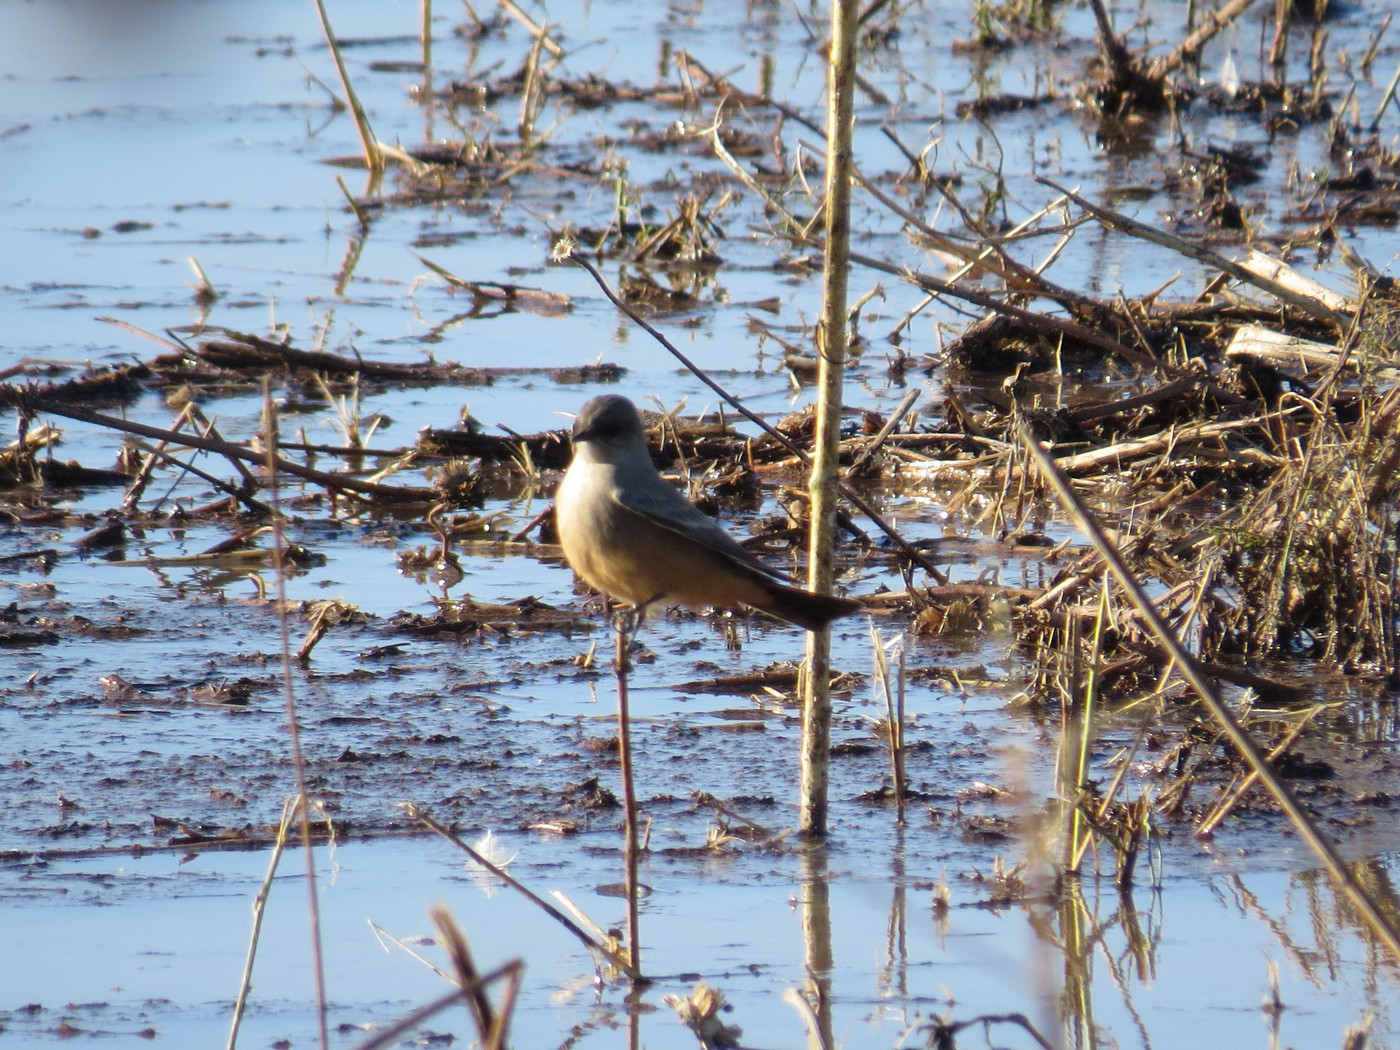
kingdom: Animalia
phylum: Chordata
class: Aves
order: Passeriformes
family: Tyrannidae
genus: Sayornis
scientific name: Sayornis saya
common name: Say's phoebe
